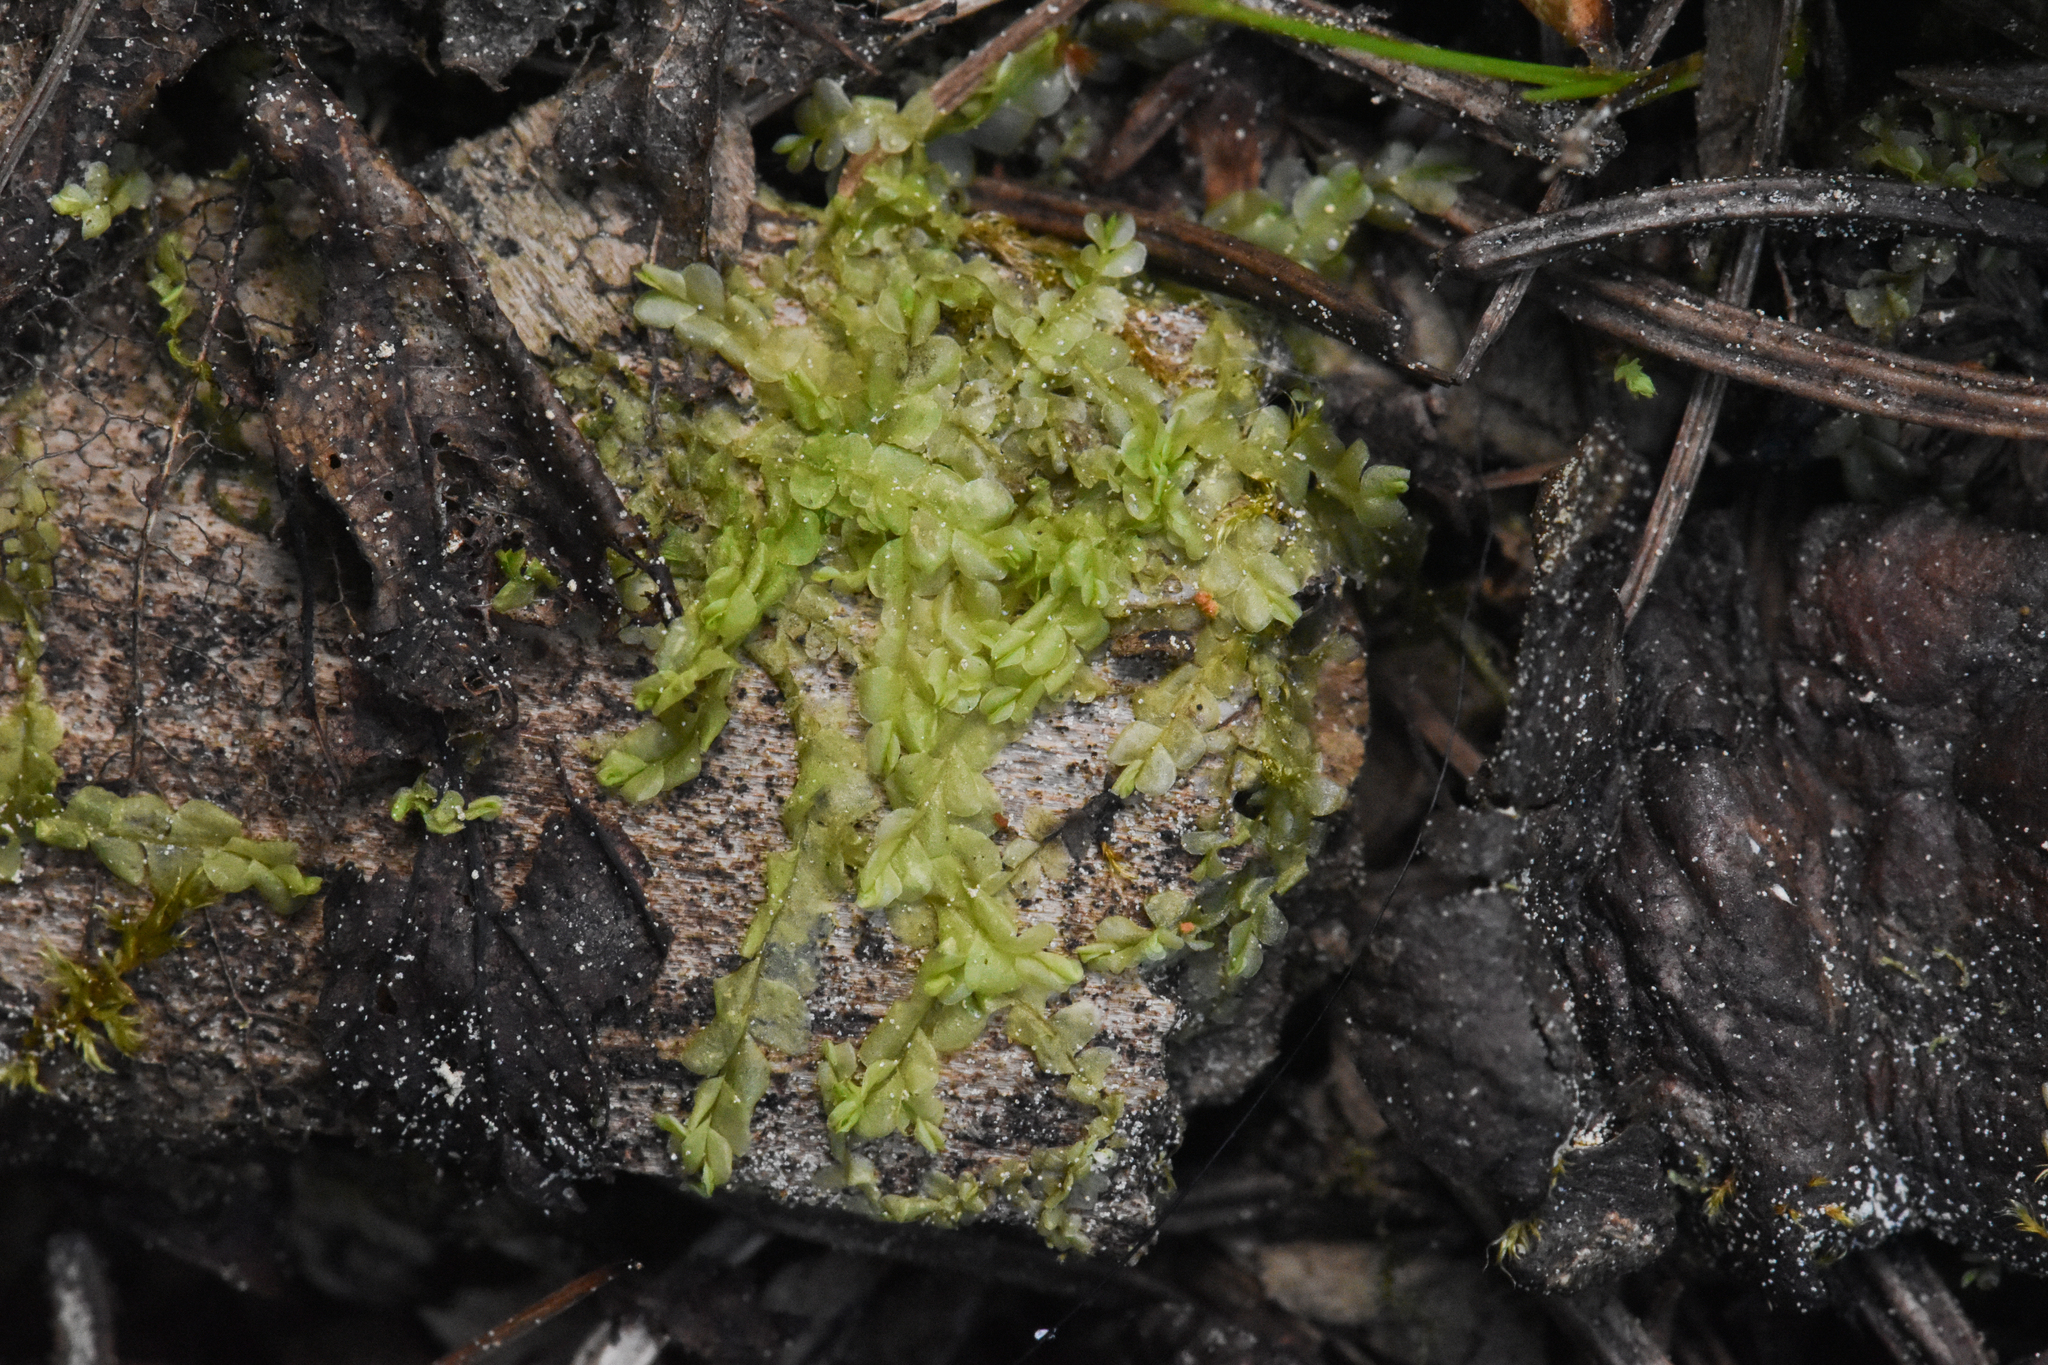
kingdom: Plantae
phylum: Marchantiophyta
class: Jungermanniopsida
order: Jungermanniales
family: Lophocoleaceae
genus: Chiloscyphus
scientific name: Chiloscyphus polyanthos
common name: Square-leaved crestwort
